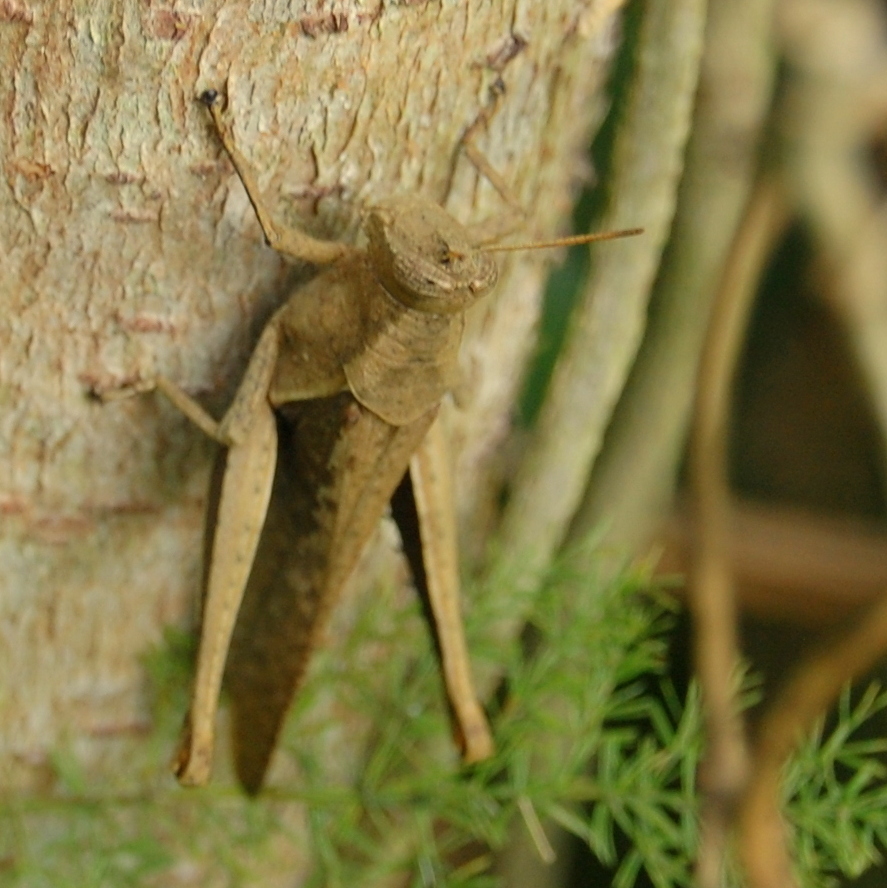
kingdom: Animalia
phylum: Arthropoda
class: Insecta
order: Orthoptera
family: Acrididae
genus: Abracris
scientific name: Abracris flavolineata
